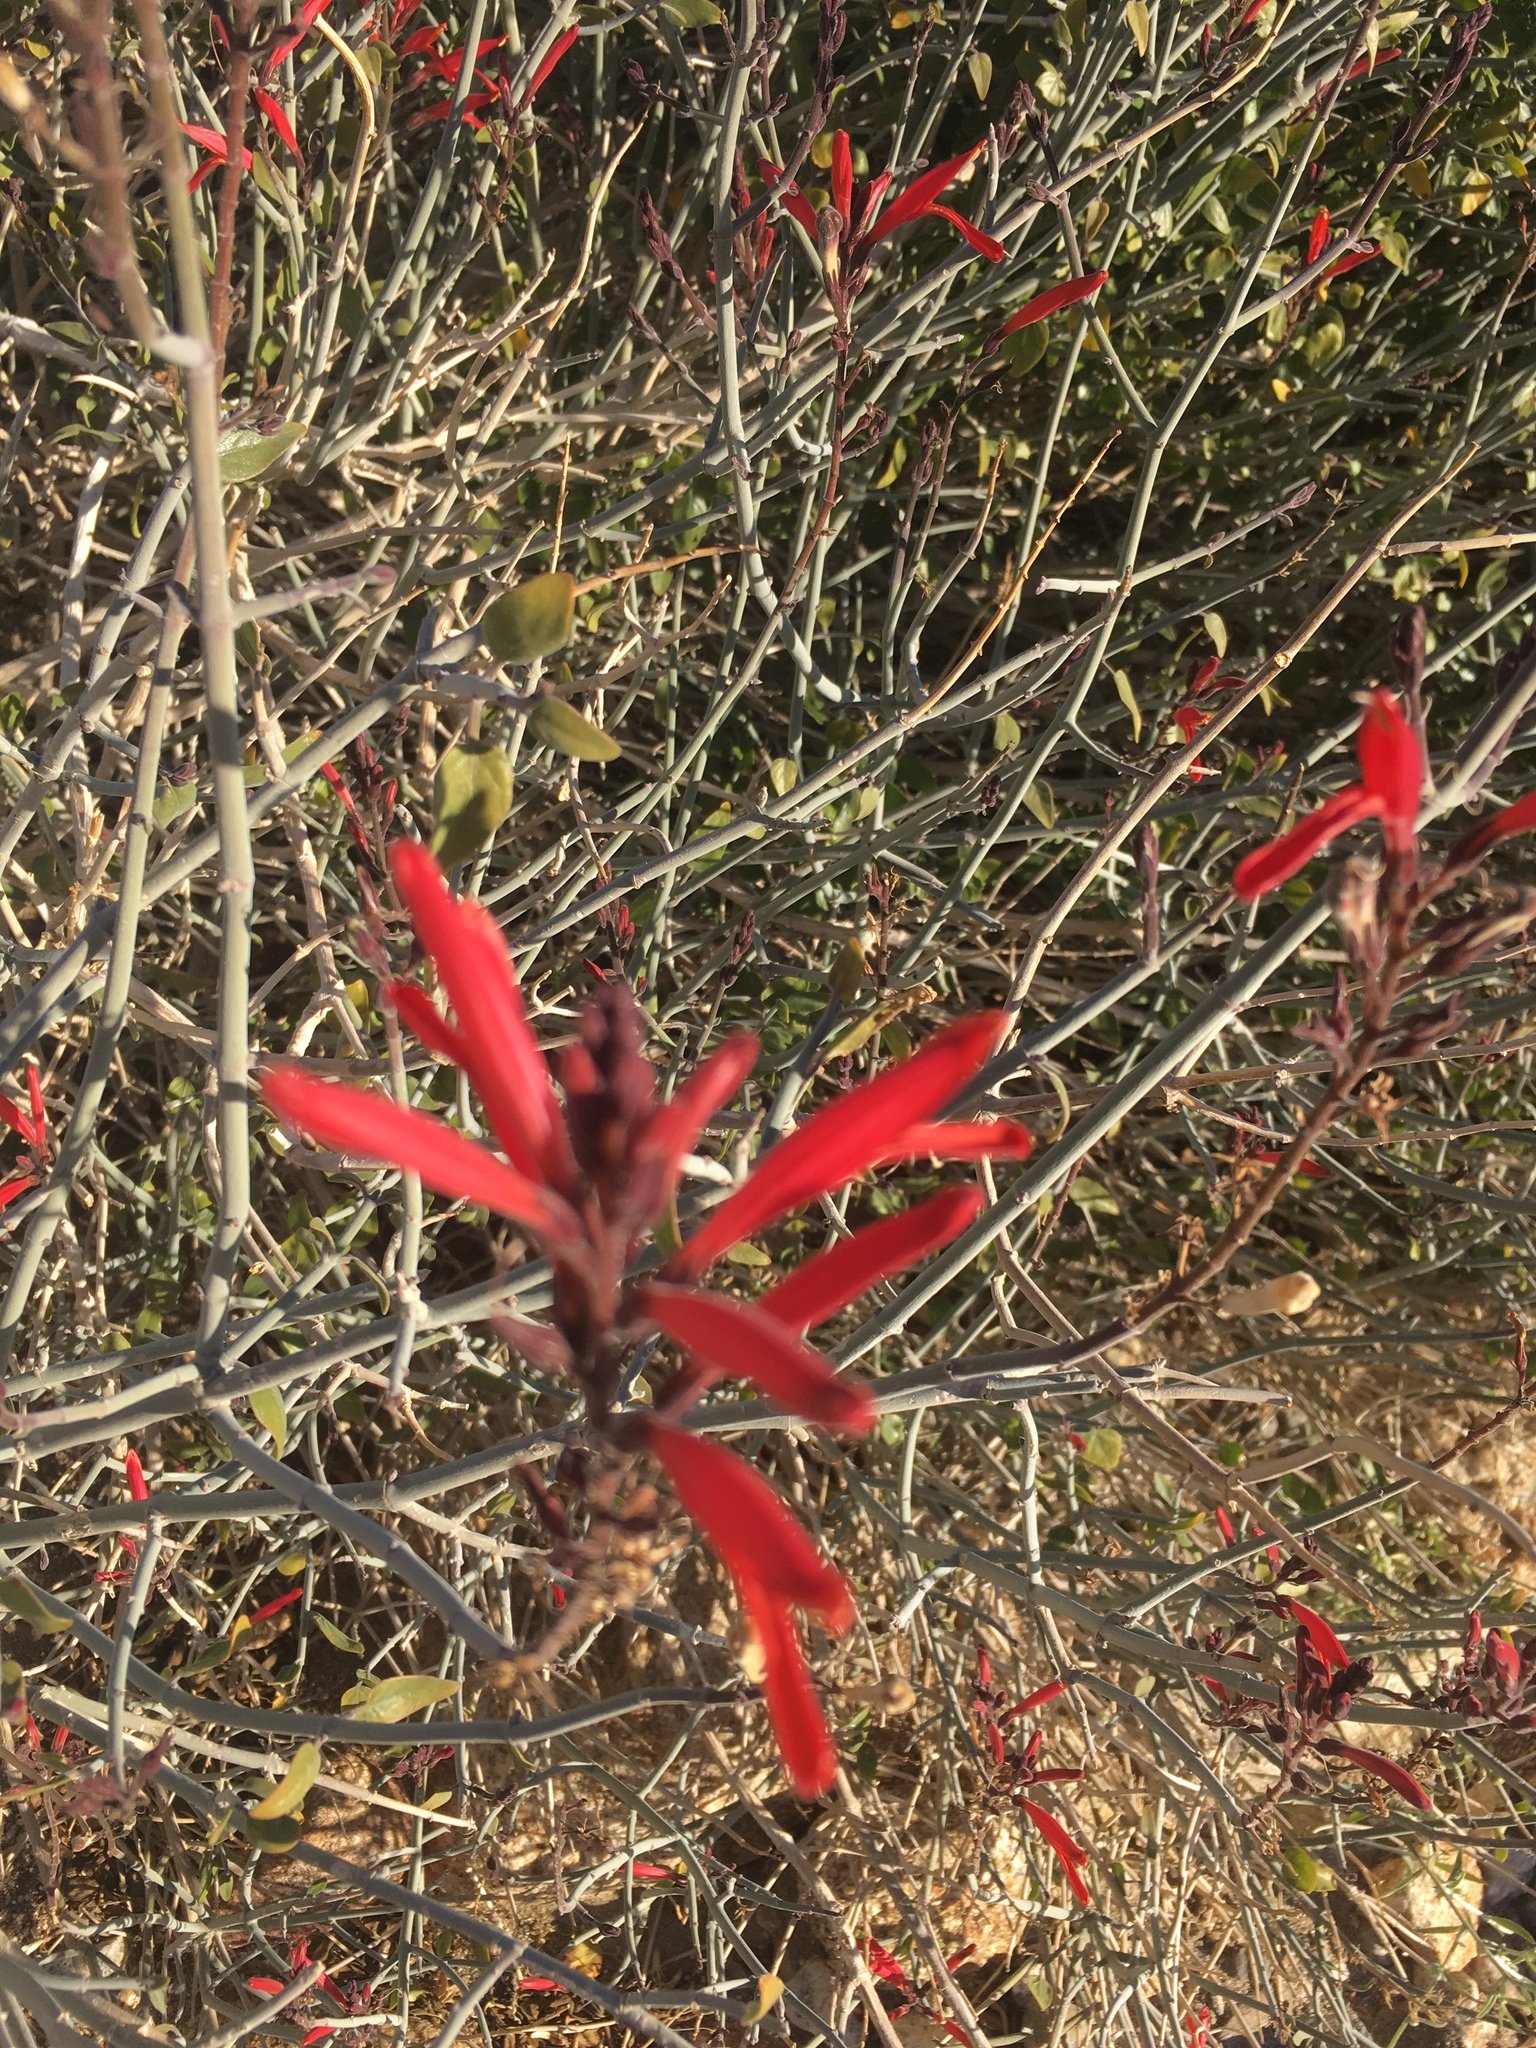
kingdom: Plantae
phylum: Tracheophyta
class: Magnoliopsida
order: Lamiales
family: Acanthaceae
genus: Justicia
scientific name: Justicia californica
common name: Chuparosa-honeysuckle
